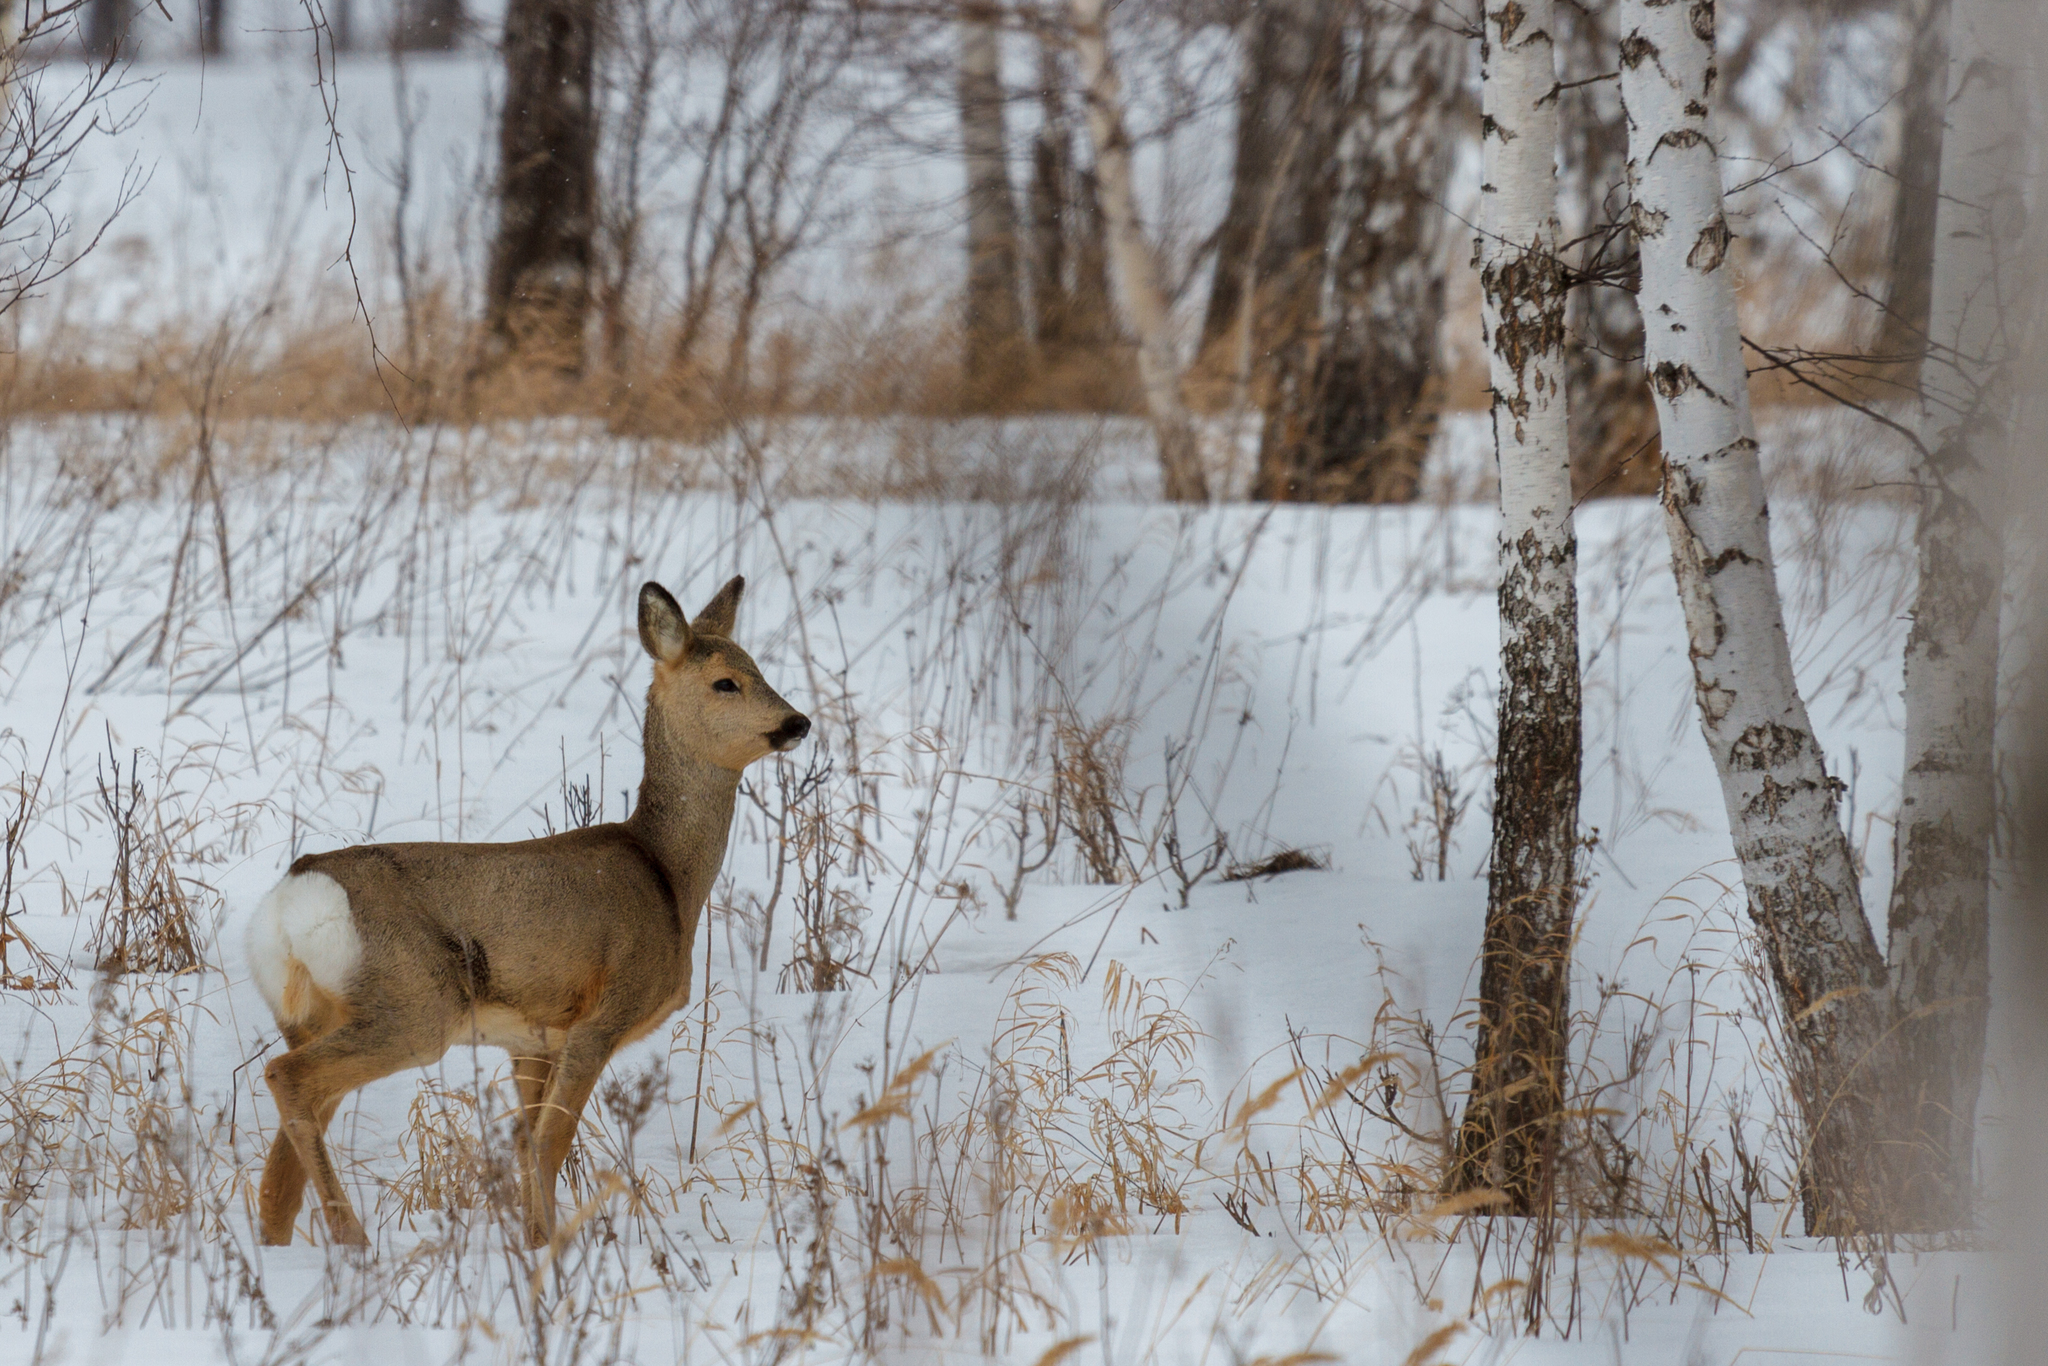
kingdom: Animalia
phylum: Chordata
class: Mammalia
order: Artiodactyla
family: Cervidae
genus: Capreolus
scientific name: Capreolus pygargus
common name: Siberian roe
